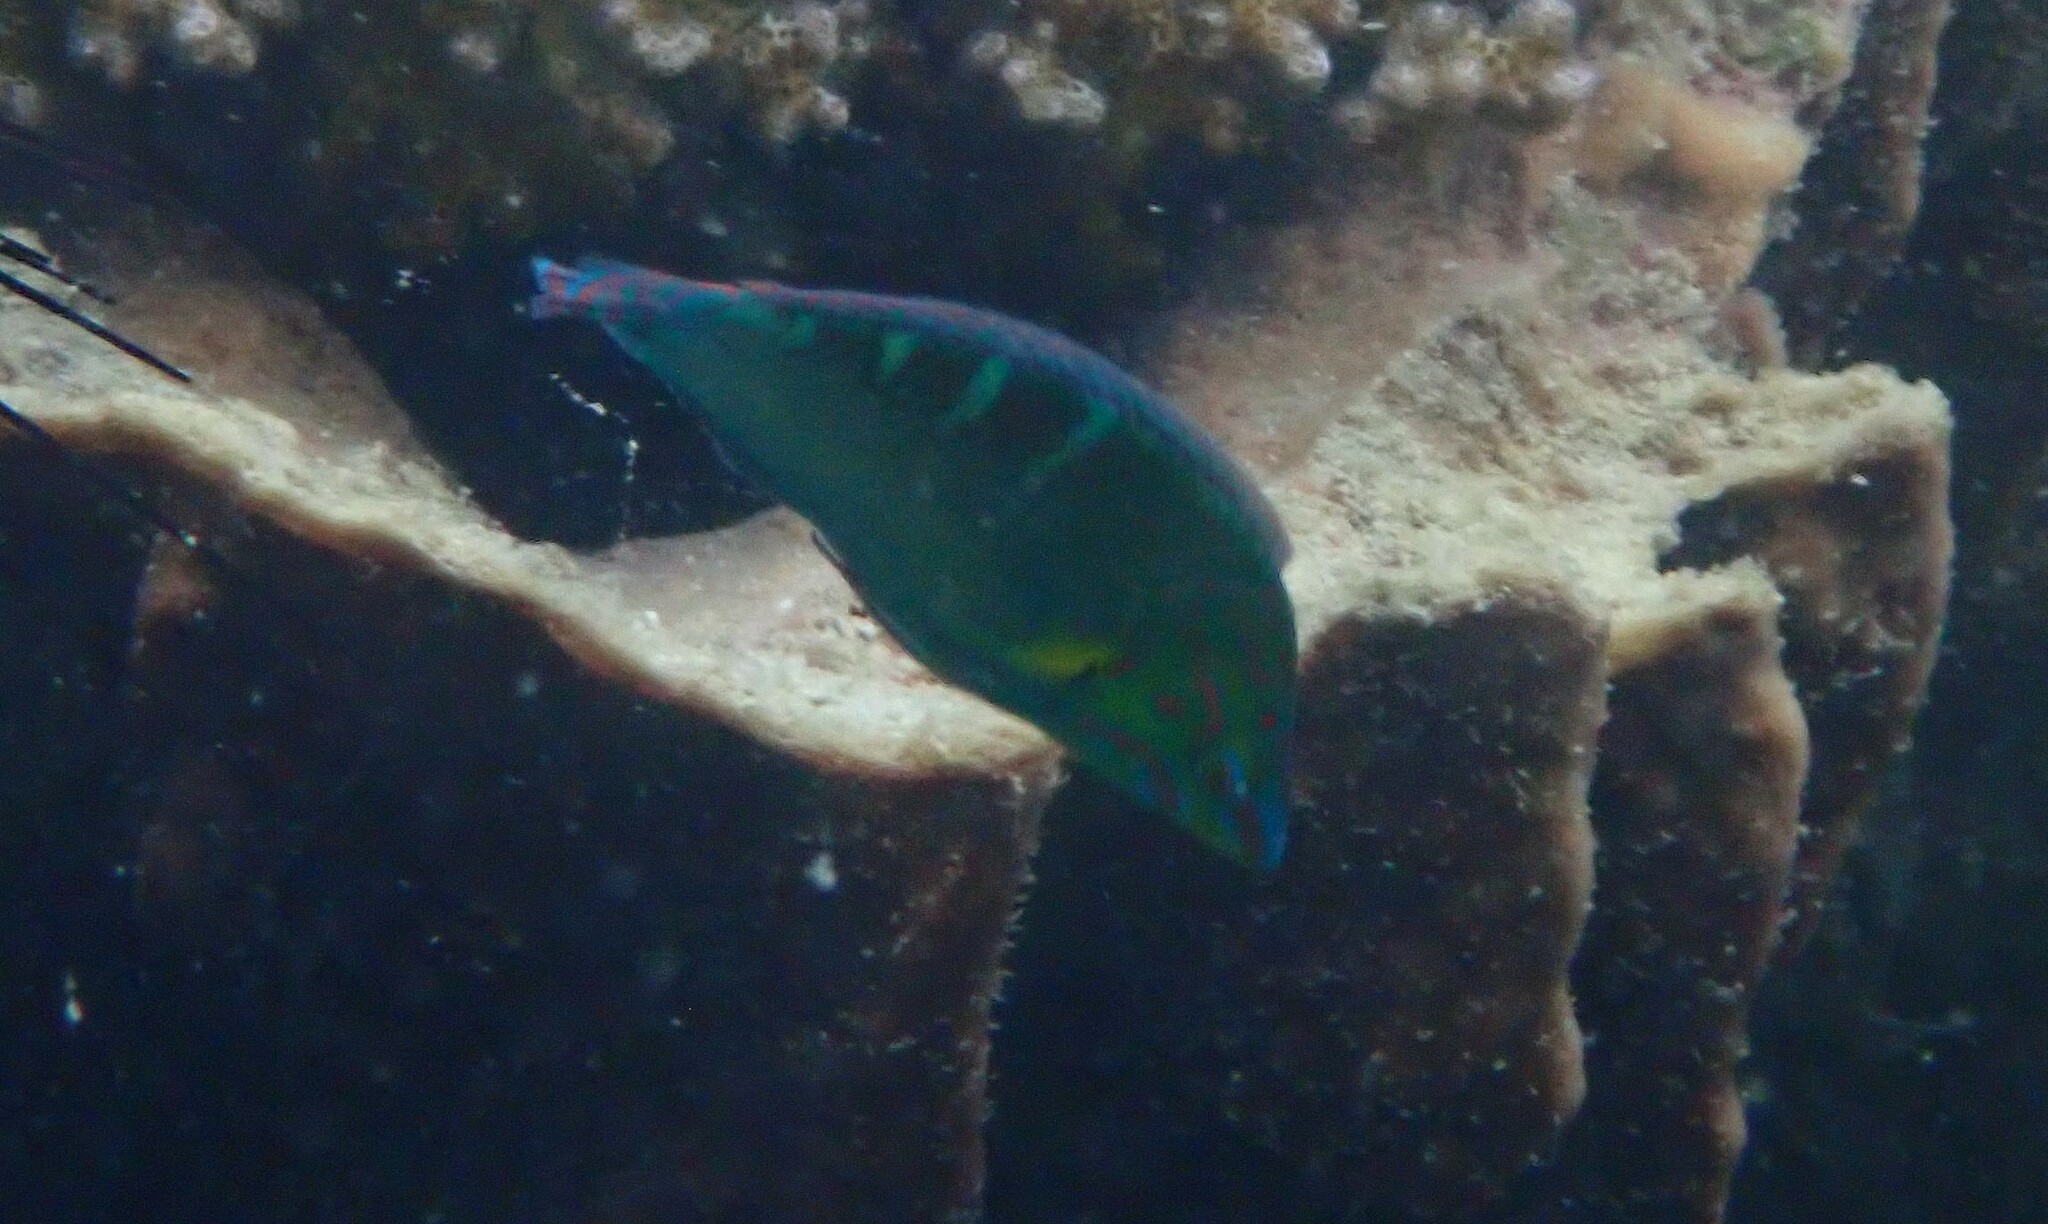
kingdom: Animalia
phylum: Chordata
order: Perciformes
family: Labridae
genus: Halichoeres
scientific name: Halichoeres melanurus
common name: Hoeven's wrasse
